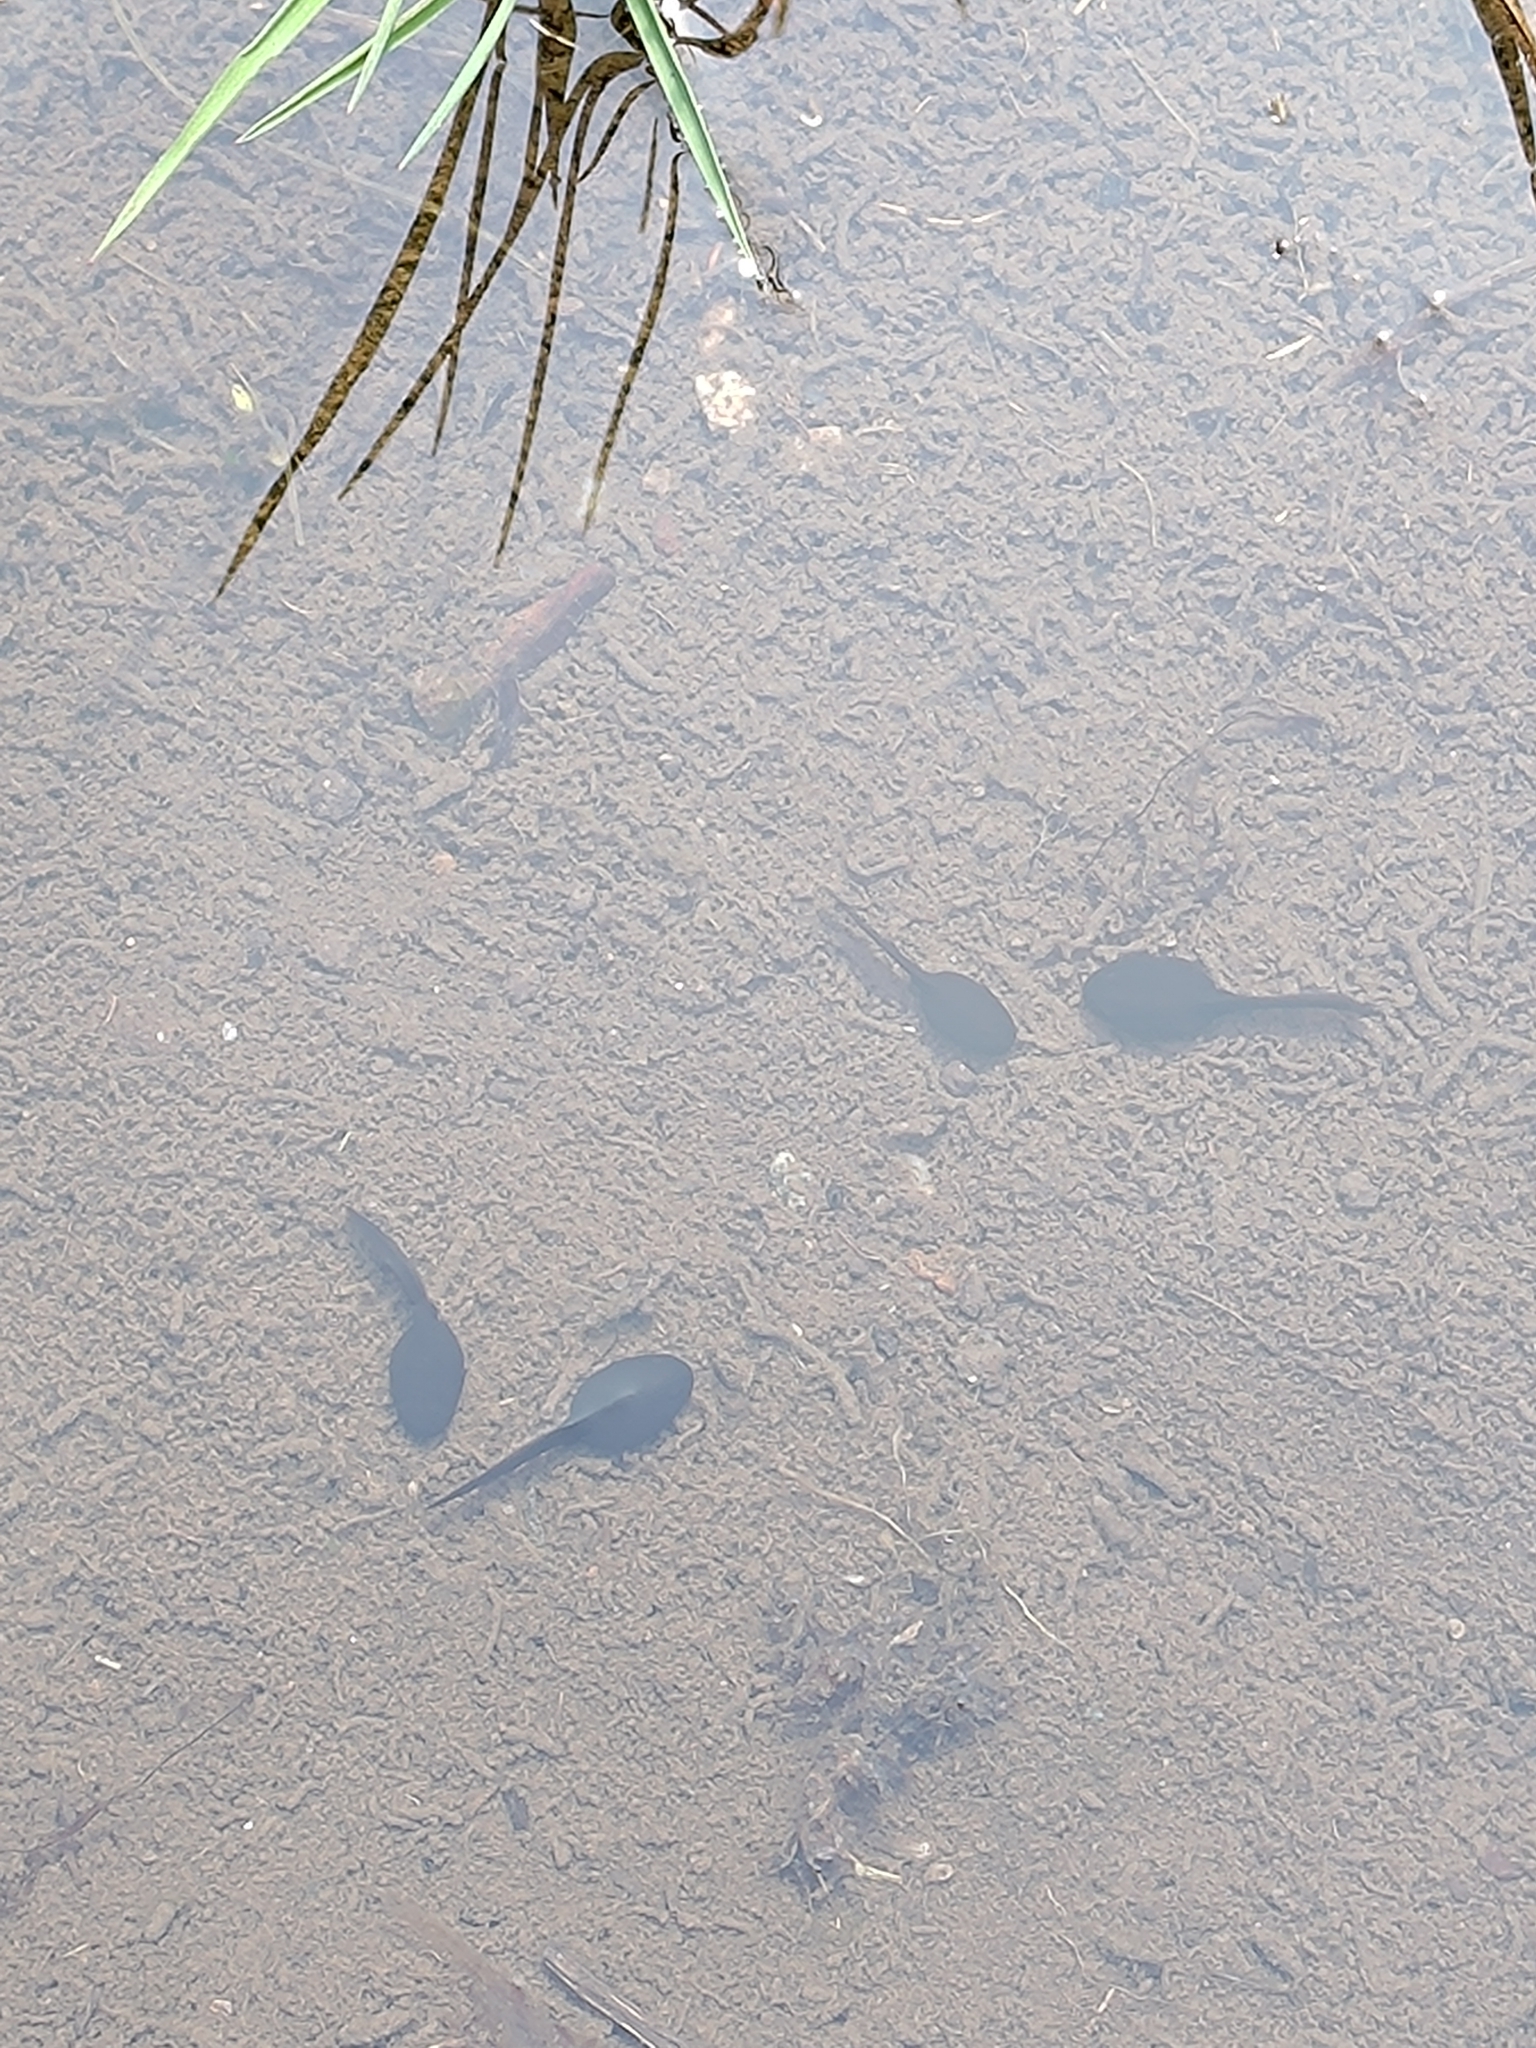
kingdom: Animalia
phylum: Chordata
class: Amphibia
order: Anura
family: Bufonidae
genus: Bufo
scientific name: Bufo bufo
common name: Common toad
